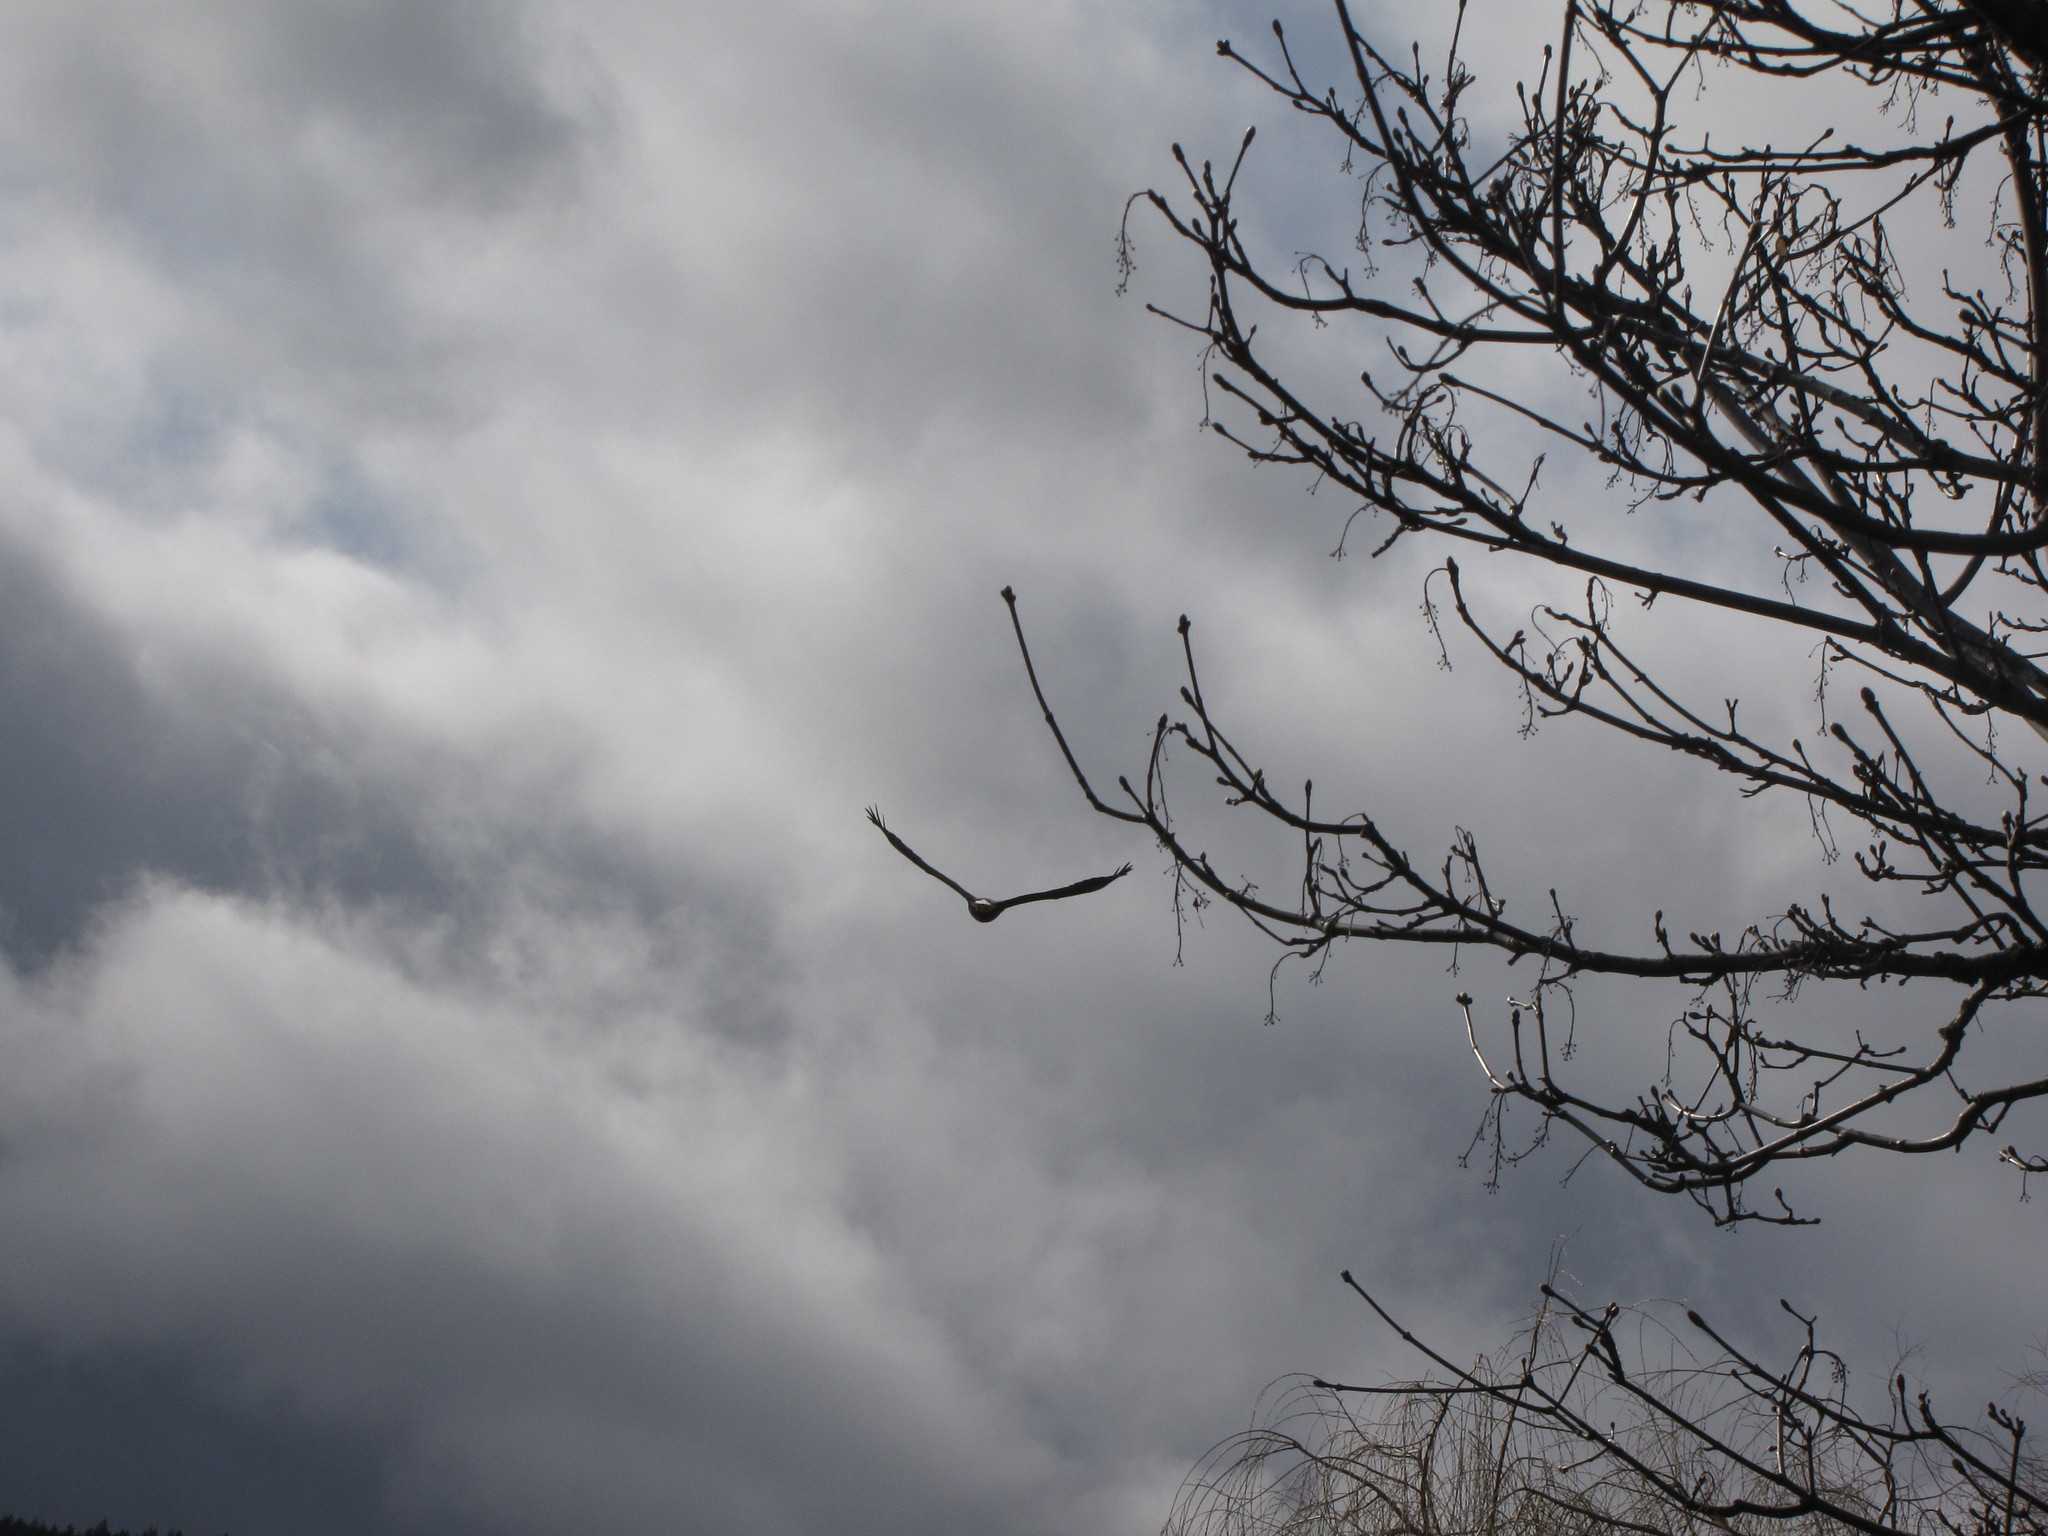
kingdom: Animalia
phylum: Chordata
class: Aves
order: Accipitriformes
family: Accipitridae
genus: Haliaeetus
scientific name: Haliaeetus leucocephalus
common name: Bald eagle
